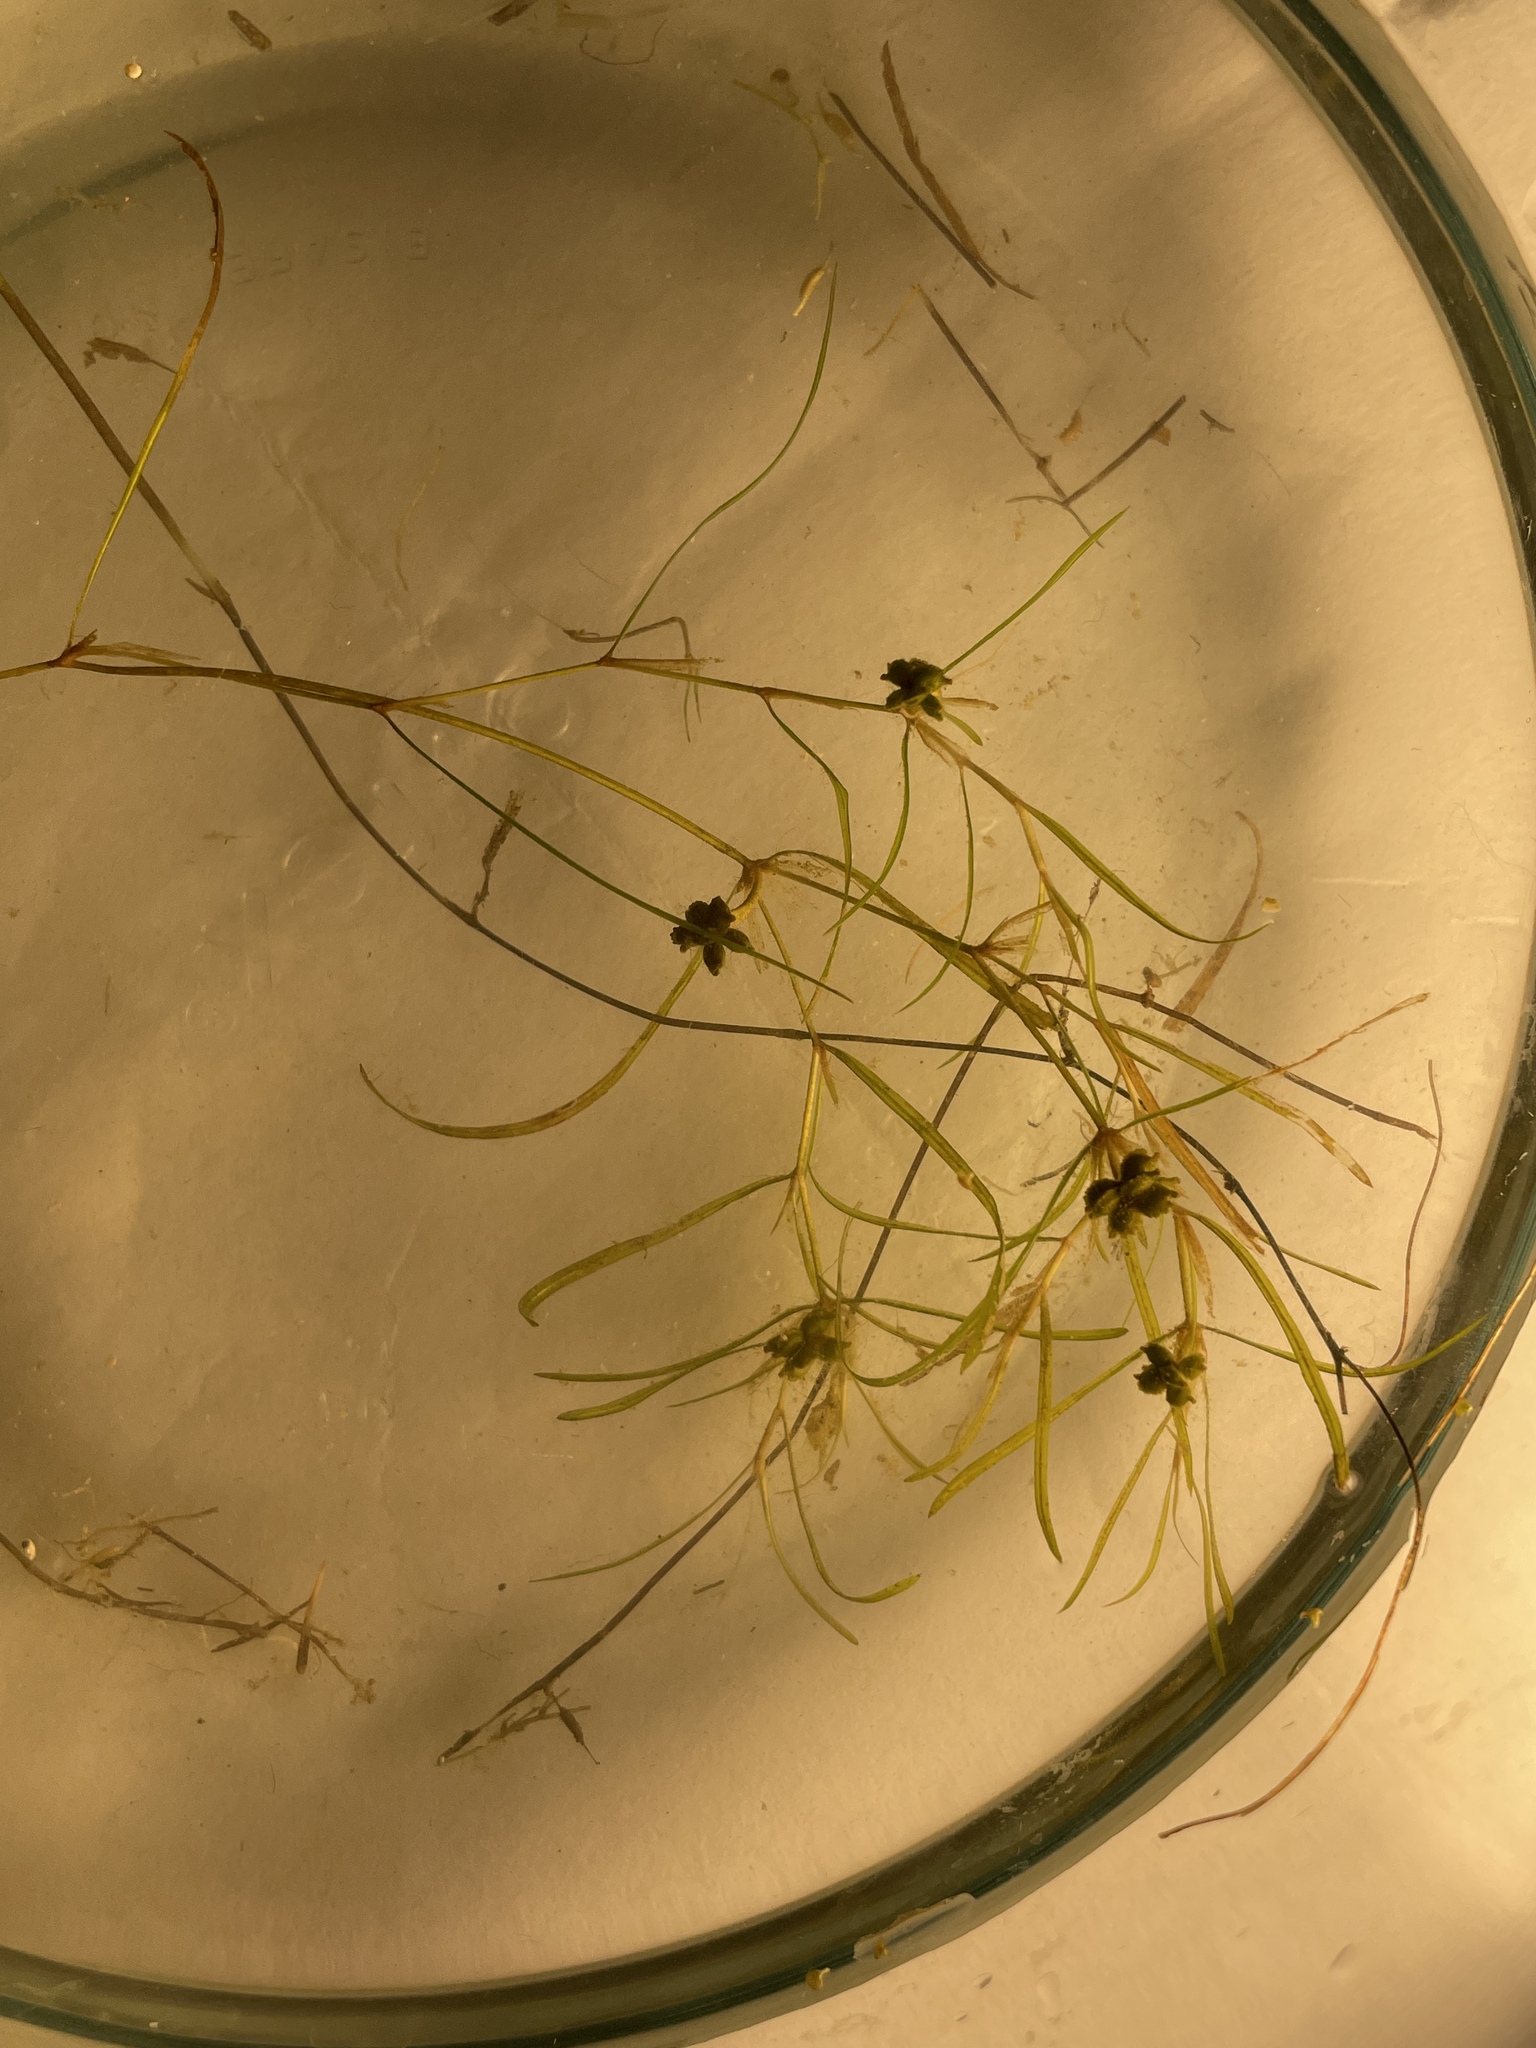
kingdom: Plantae
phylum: Tracheophyta
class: Liliopsida
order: Alismatales
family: Potamogetonaceae
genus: Potamogeton
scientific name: Potamogeton foliosus
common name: Leafy pondweed
